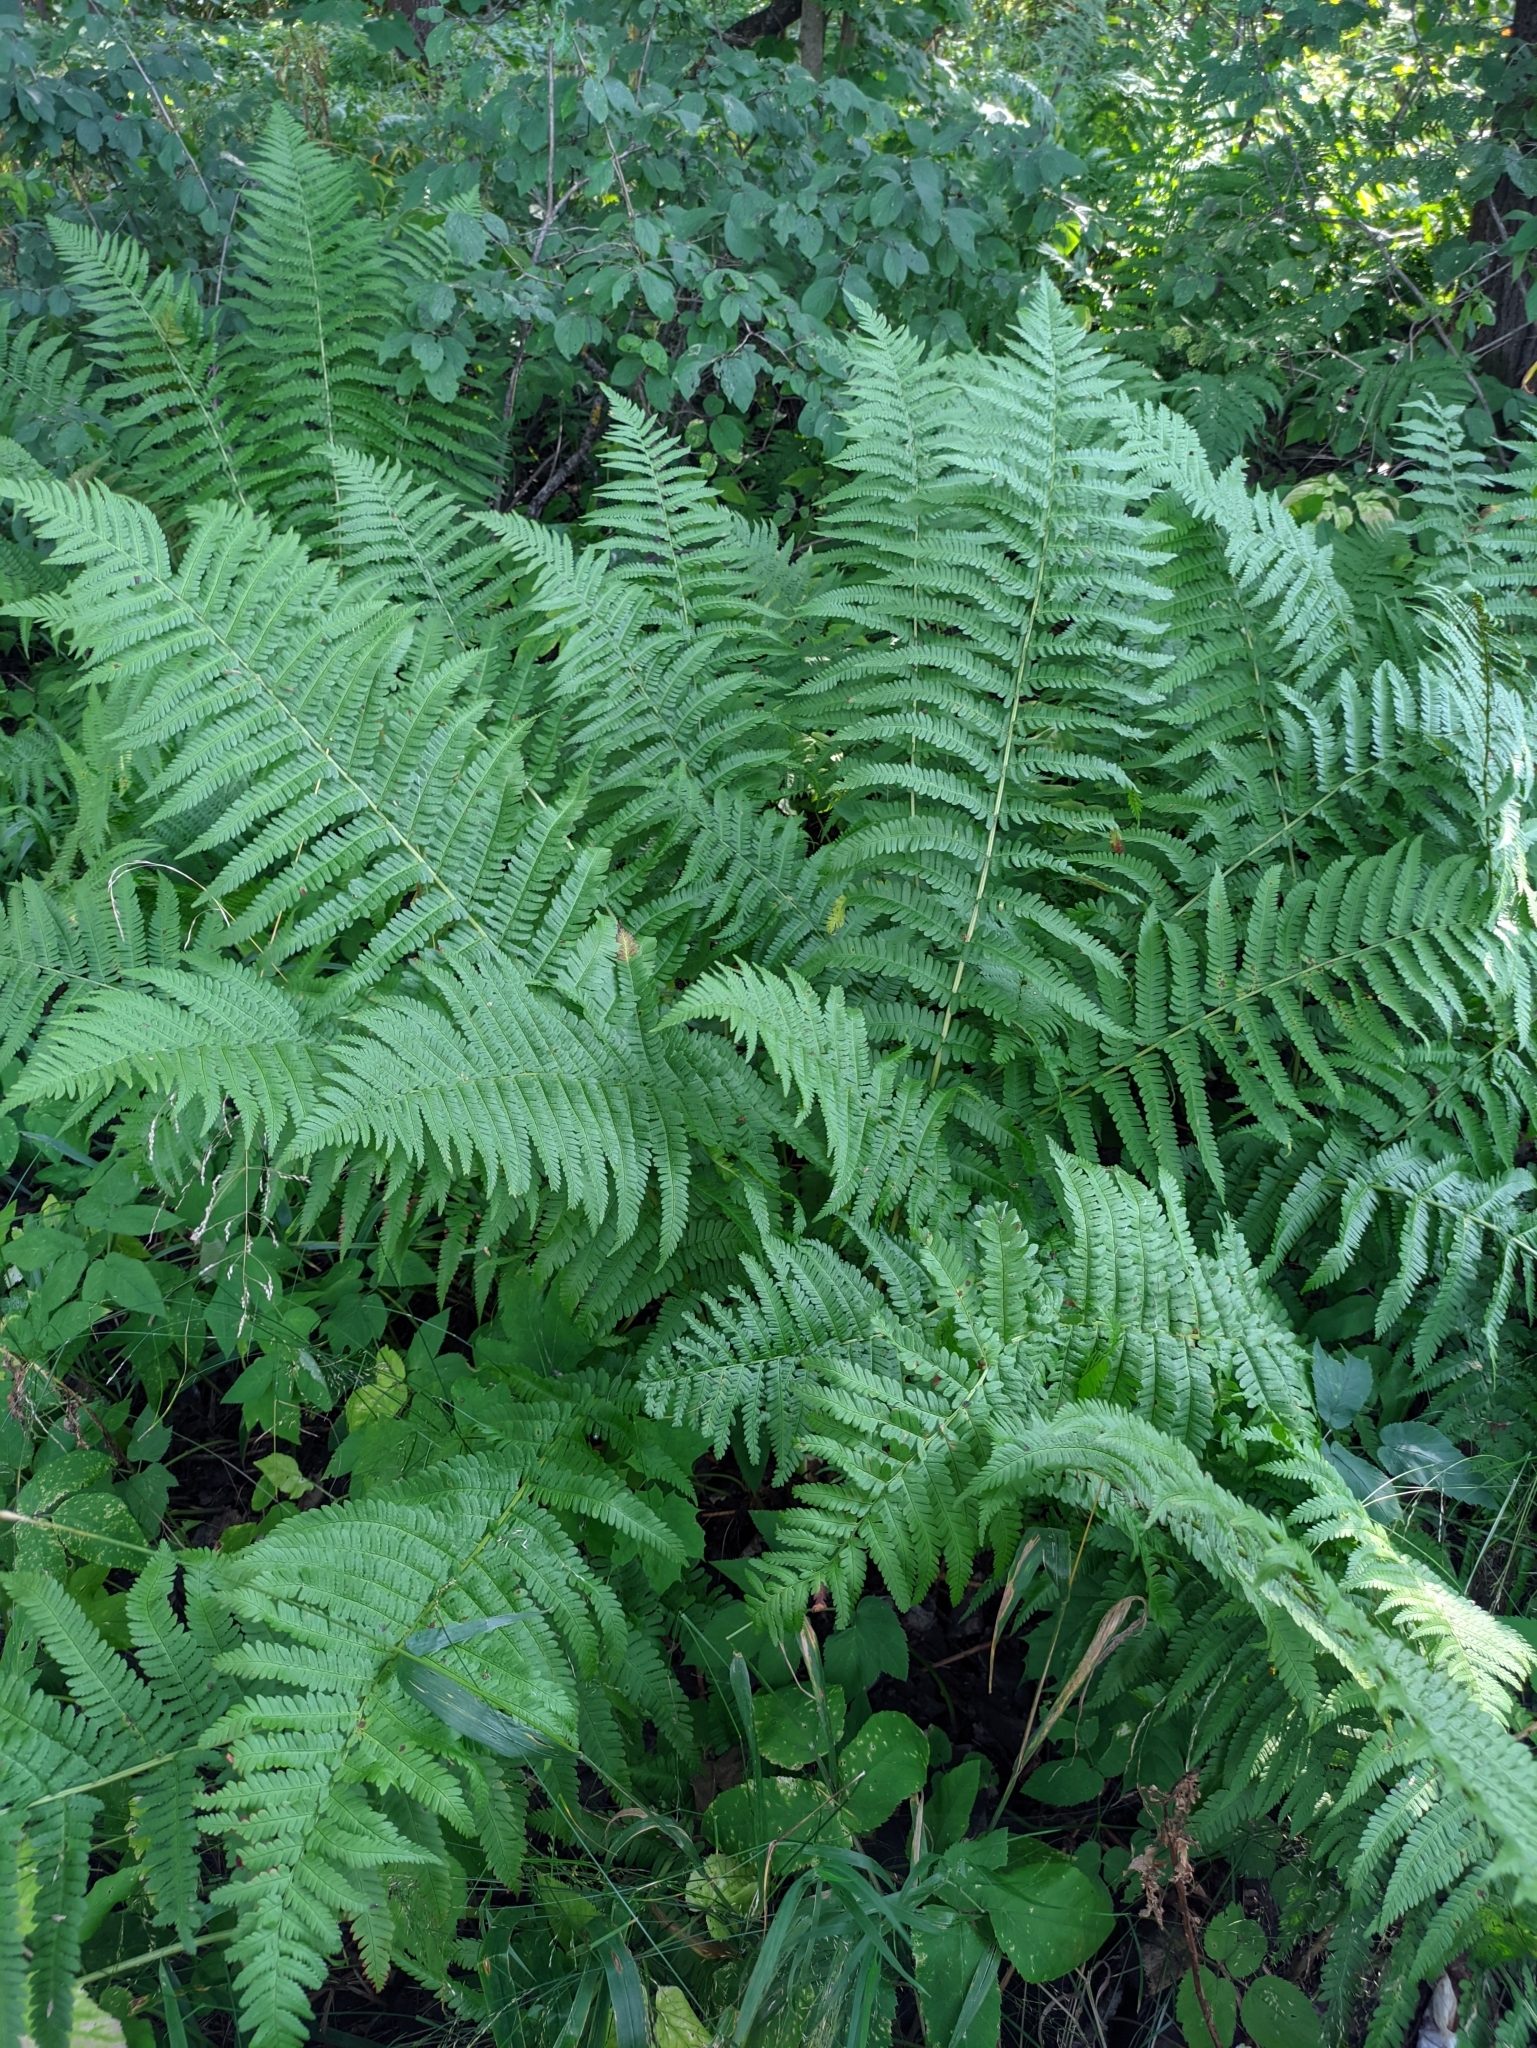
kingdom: Plantae
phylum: Tracheophyta
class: Polypodiopsida
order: Polypodiales
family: Dryopteridaceae
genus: Dryopteris
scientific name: Dryopteris filix-mas
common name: Male fern
